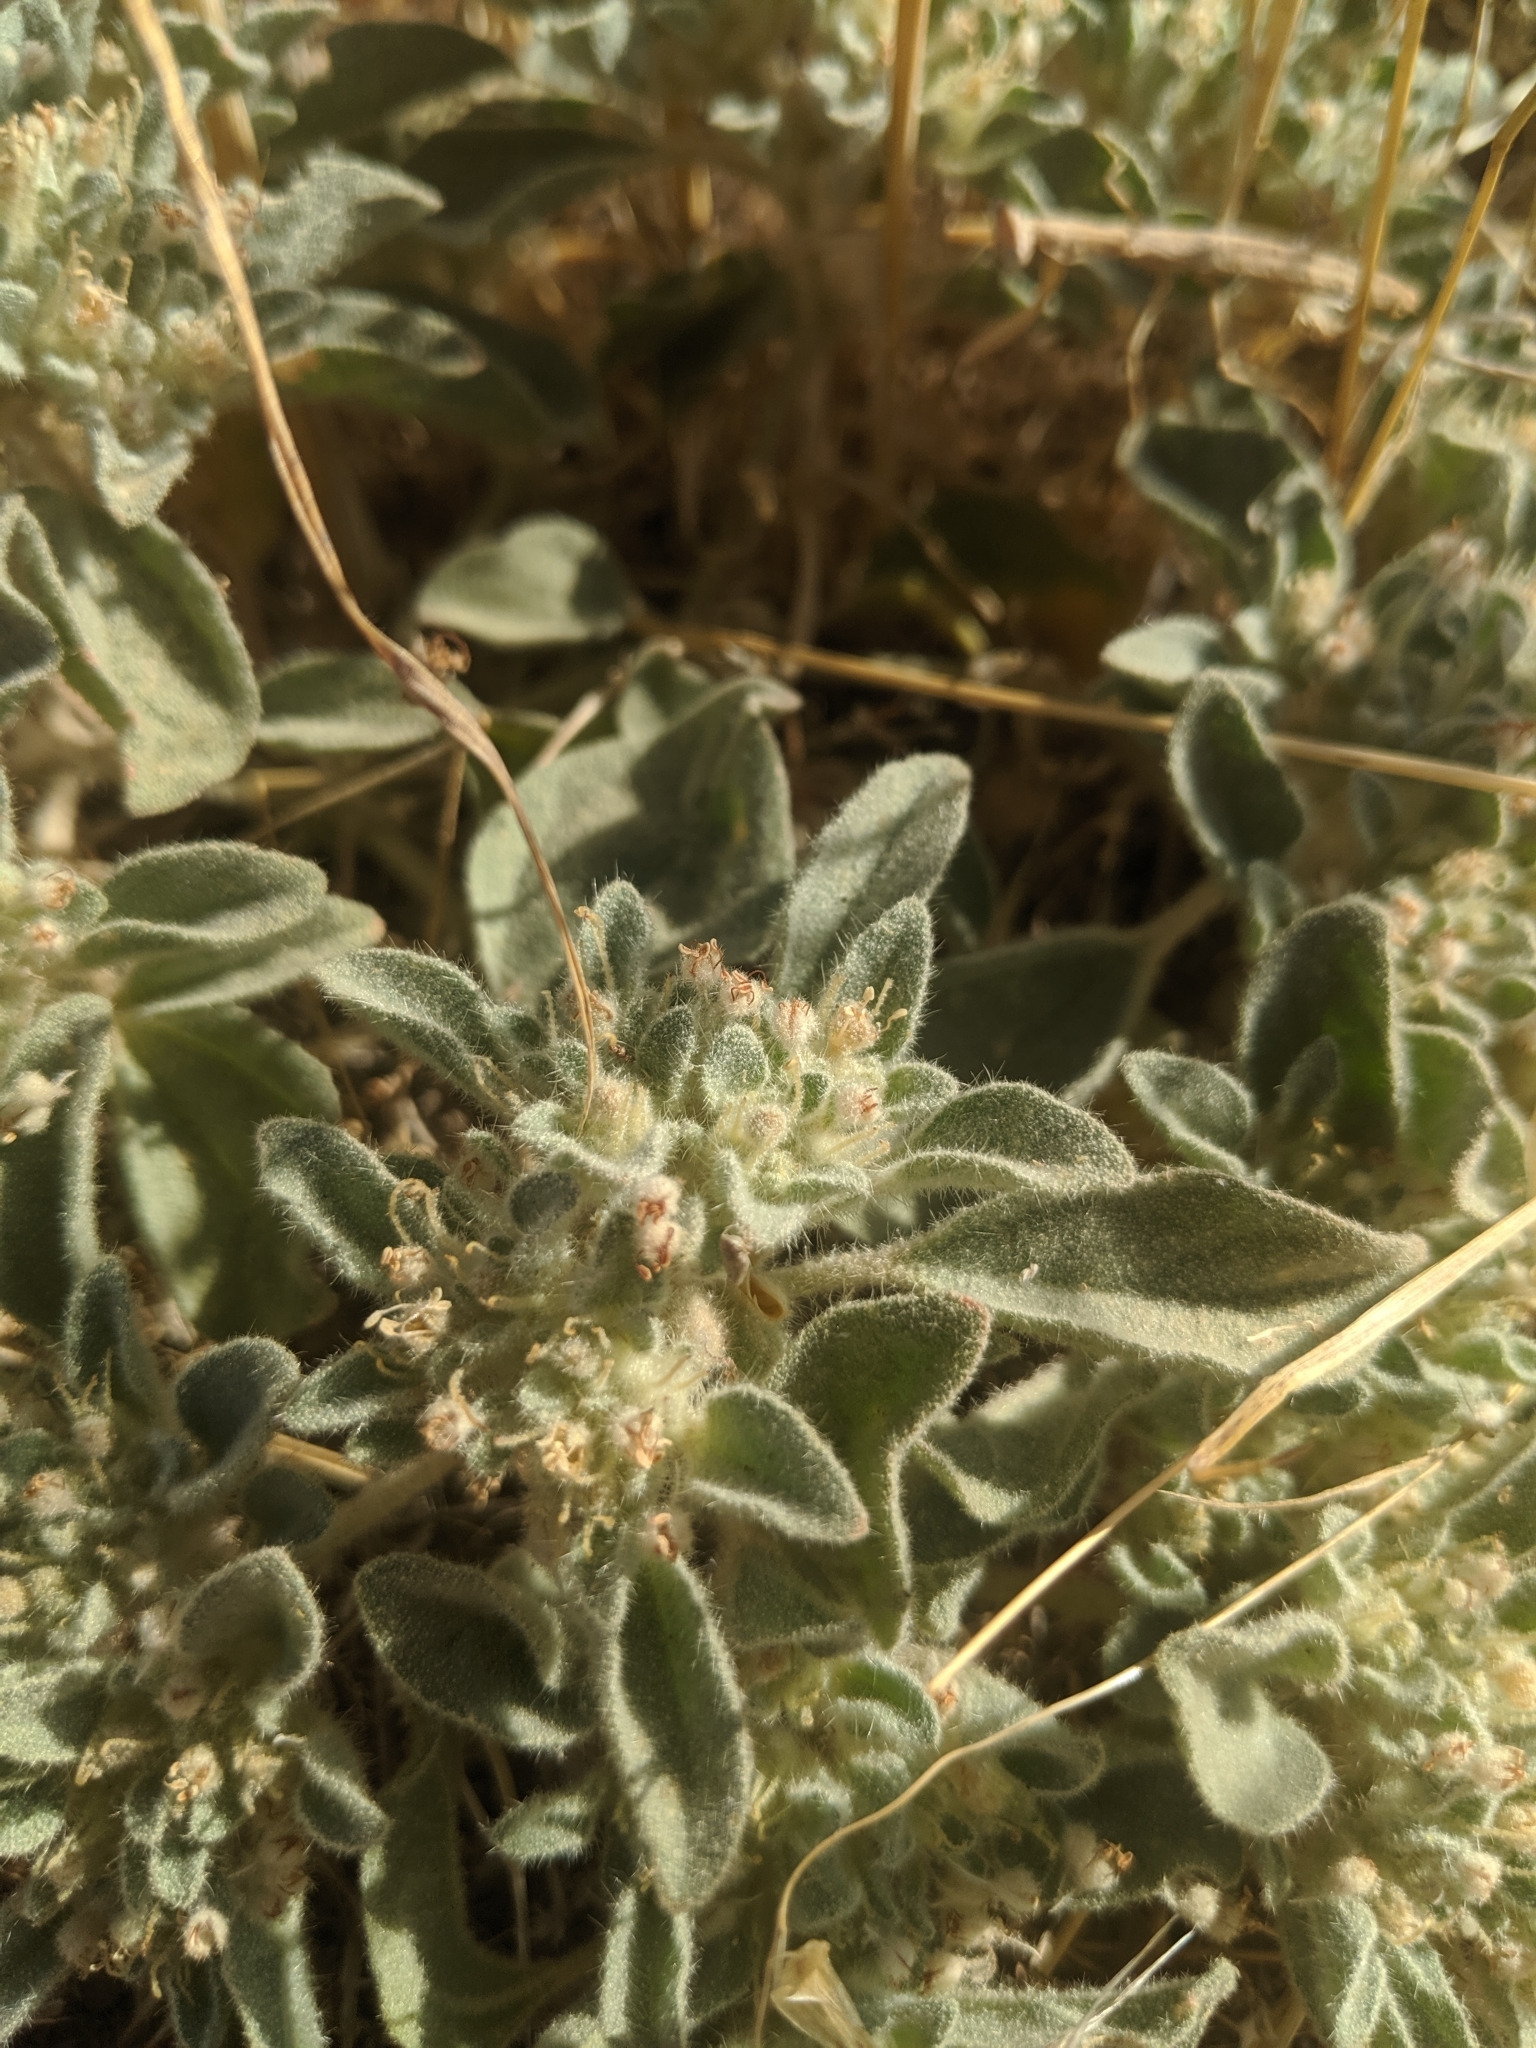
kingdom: Plantae
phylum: Tracheophyta
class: Magnoliopsida
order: Malpighiales
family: Euphorbiaceae
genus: Croton
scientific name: Croton setiger
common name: Dove weed
